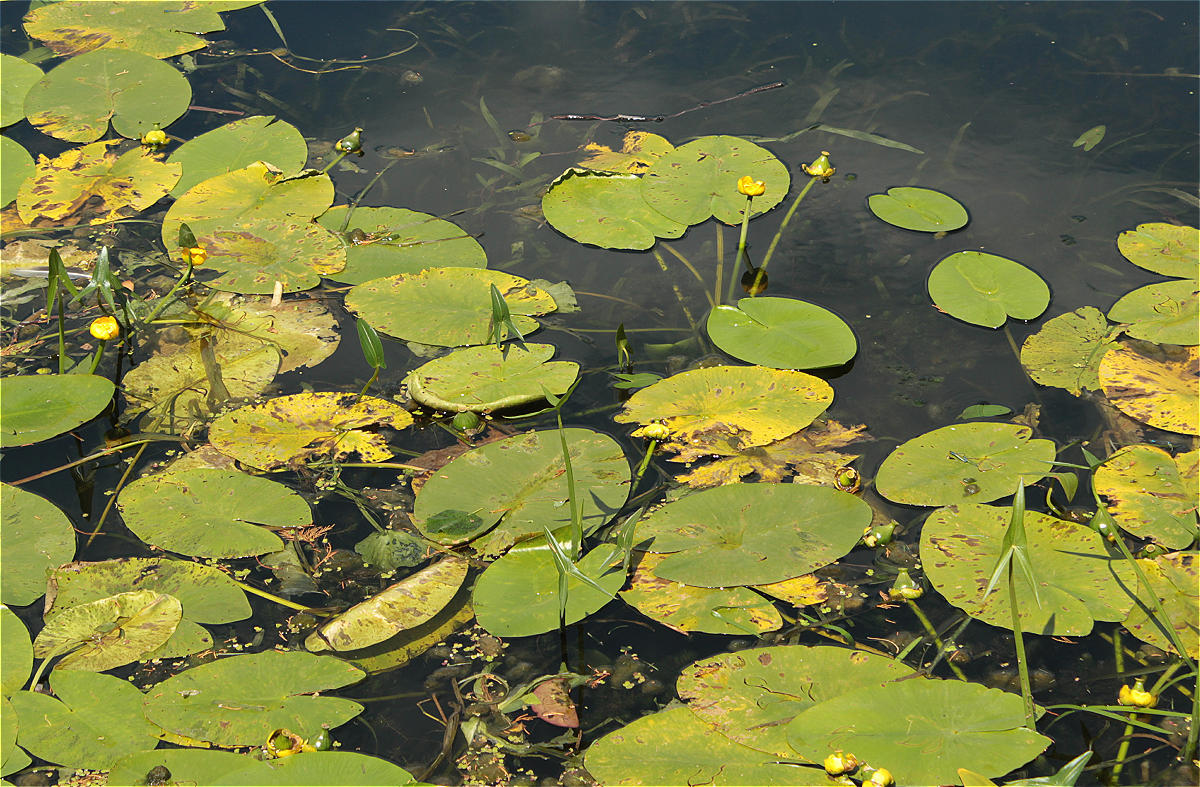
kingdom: Plantae
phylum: Tracheophyta
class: Magnoliopsida
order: Nymphaeales
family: Nymphaeaceae
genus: Nuphar
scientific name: Nuphar lutea
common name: Yellow water-lily
